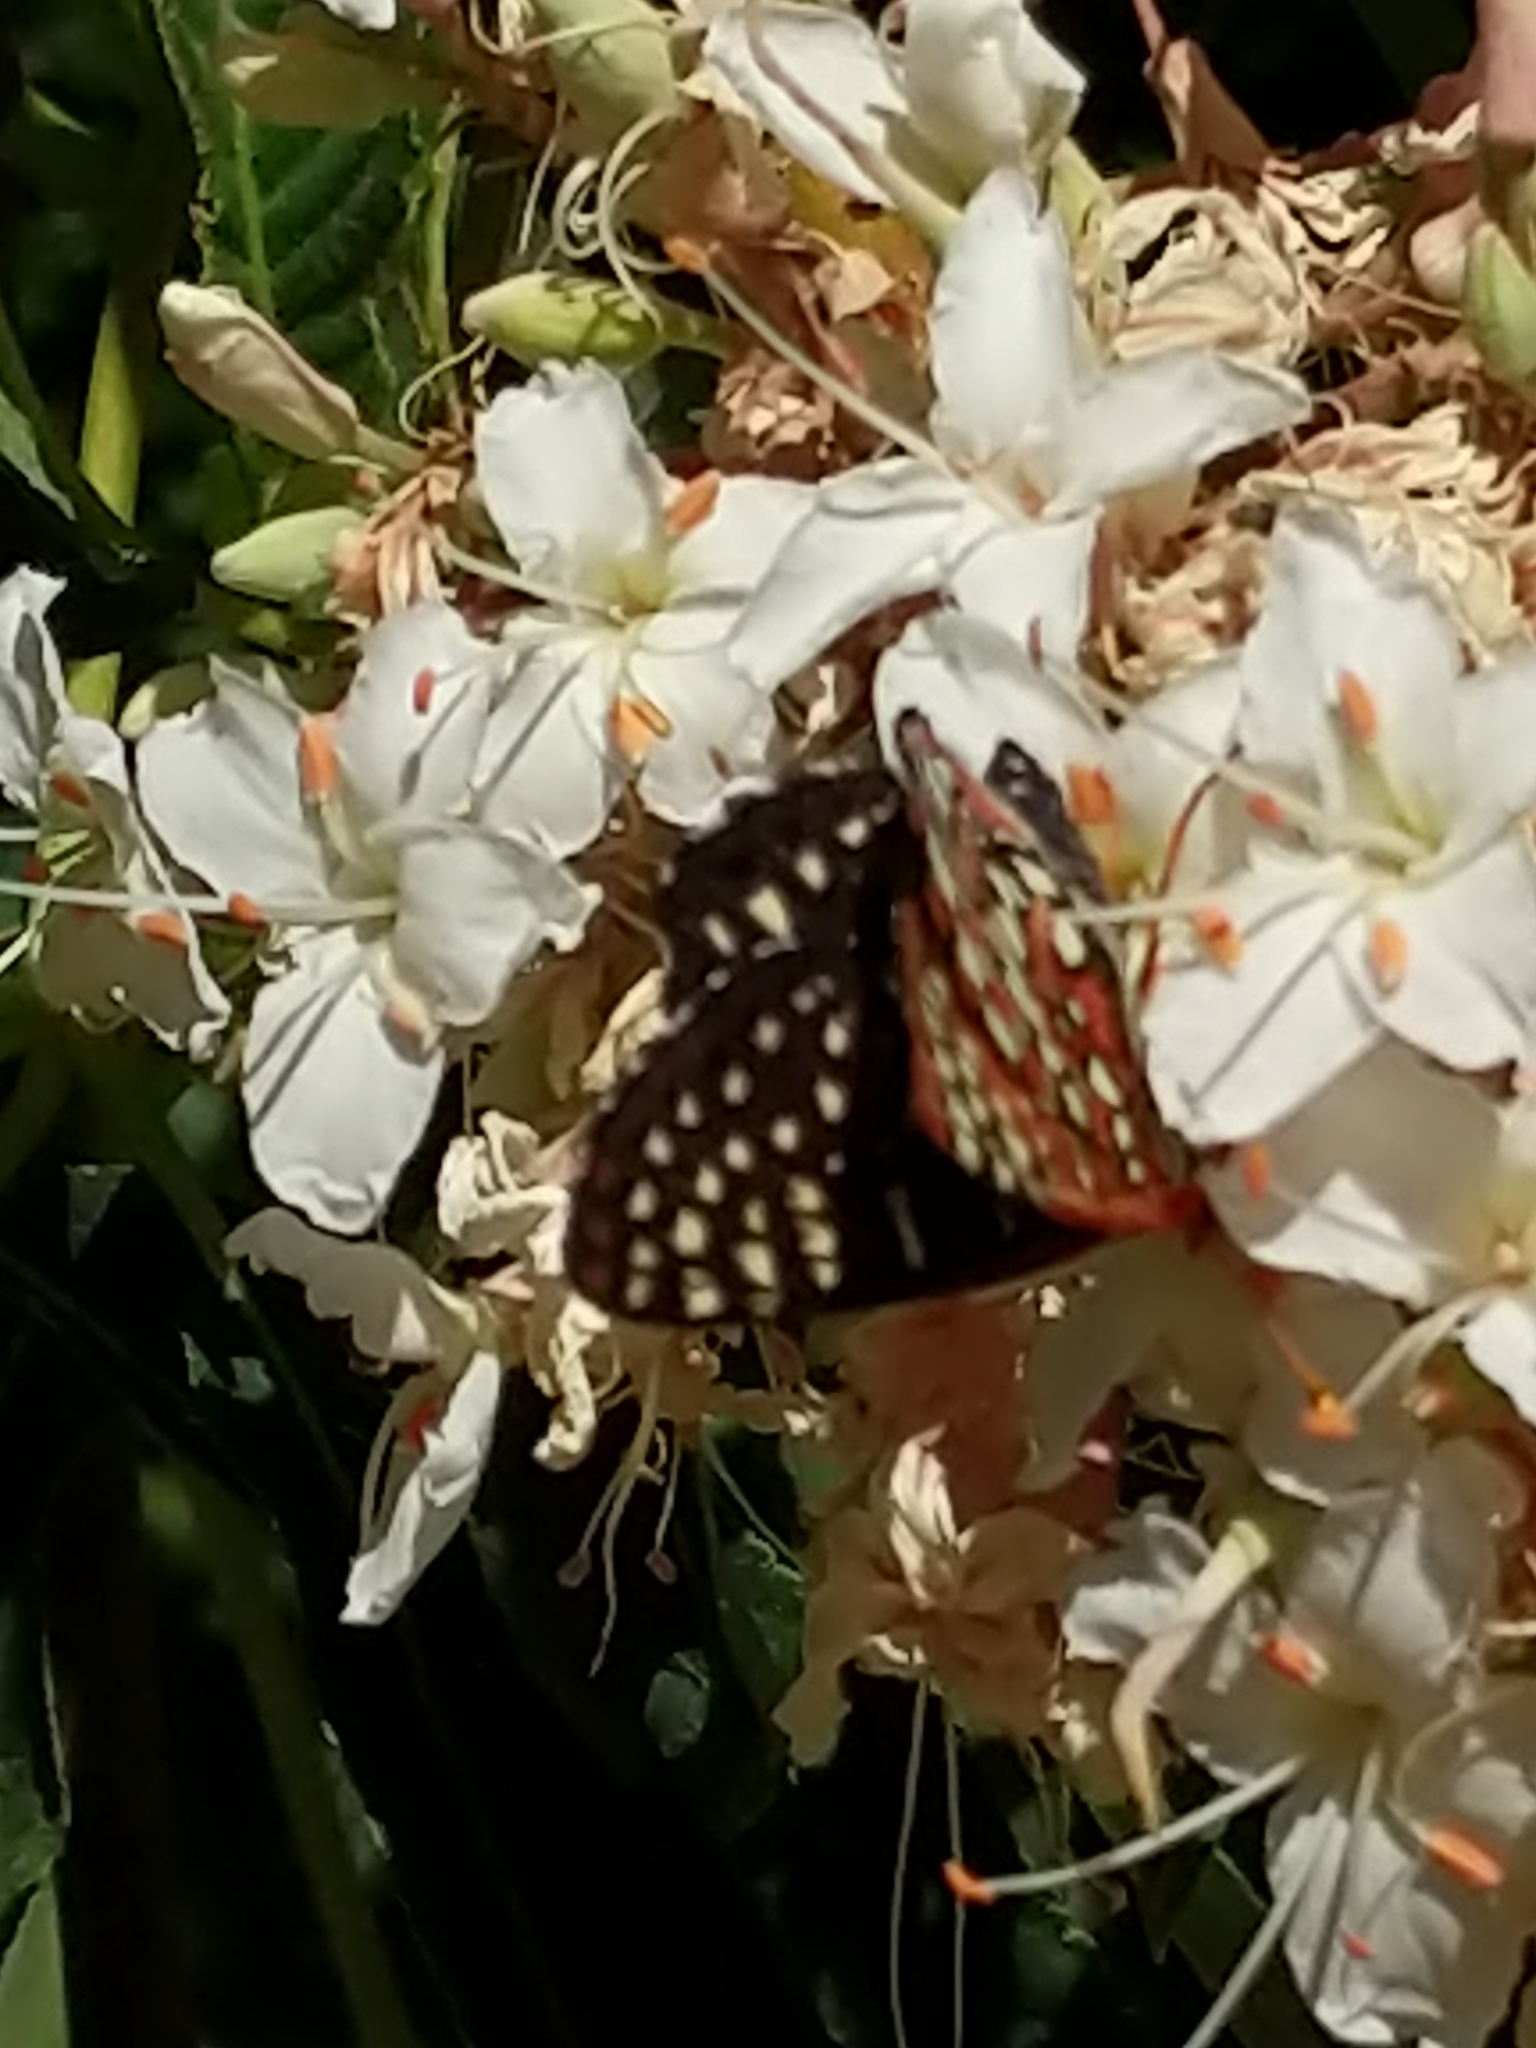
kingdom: Animalia
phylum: Arthropoda
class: Insecta
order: Lepidoptera
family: Nymphalidae
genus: Occidryas
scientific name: Occidryas chalcedona
